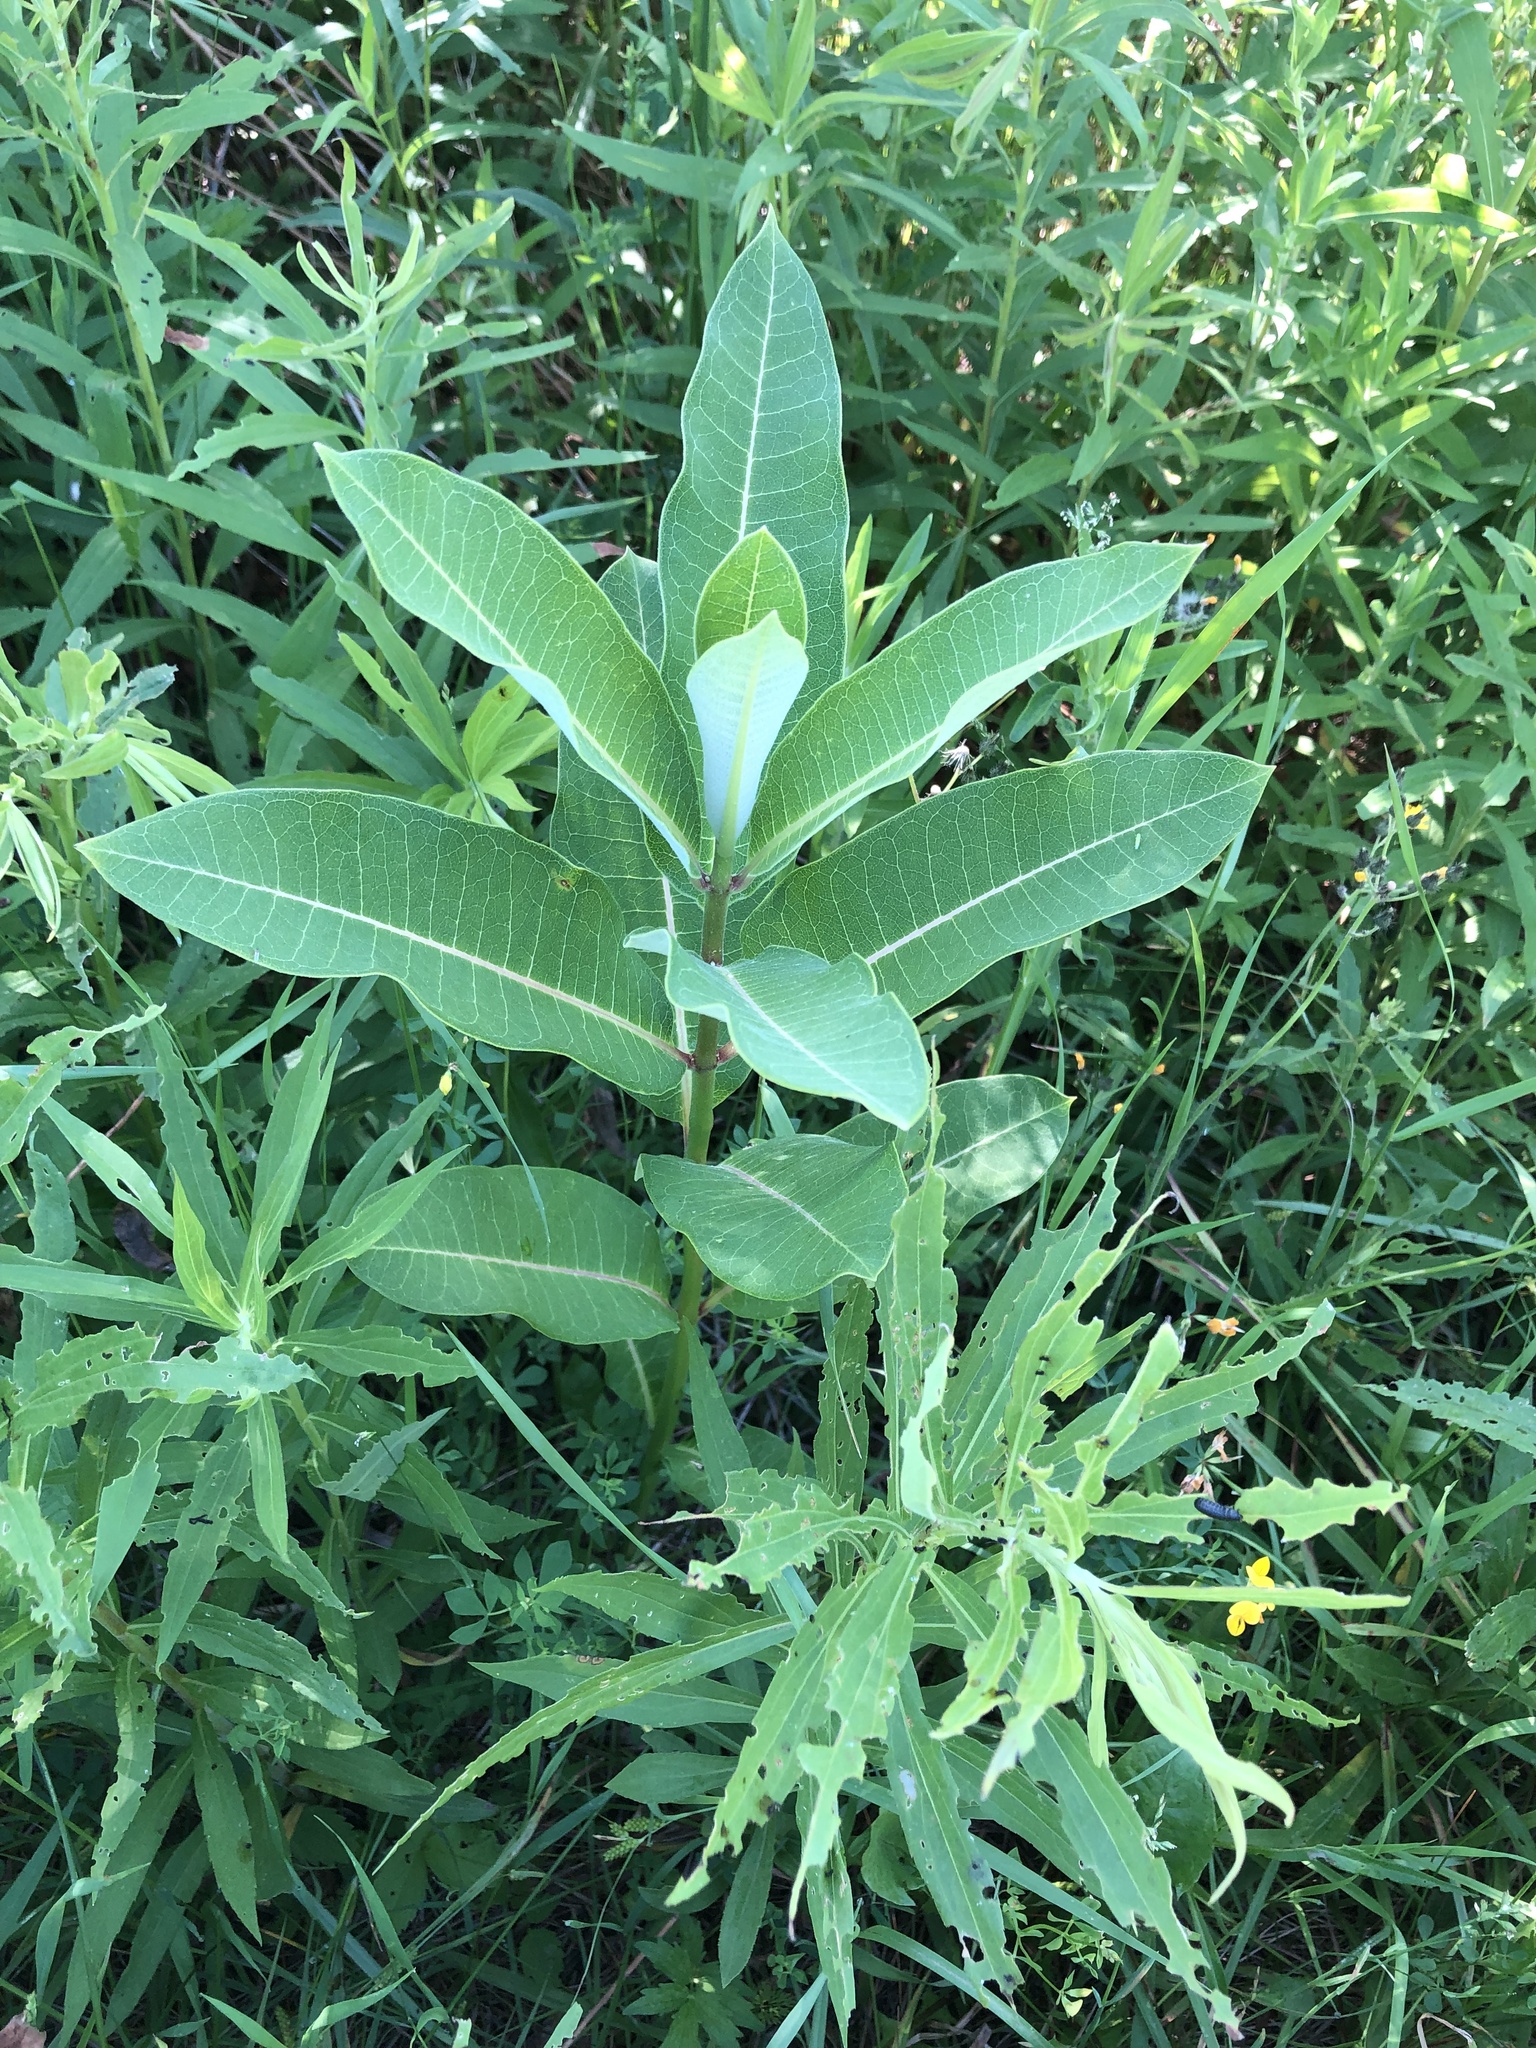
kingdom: Plantae
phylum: Tracheophyta
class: Magnoliopsida
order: Gentianales
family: Apocynaceae
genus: Asclepias
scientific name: Asclepias syriaca
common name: Common milkweed
